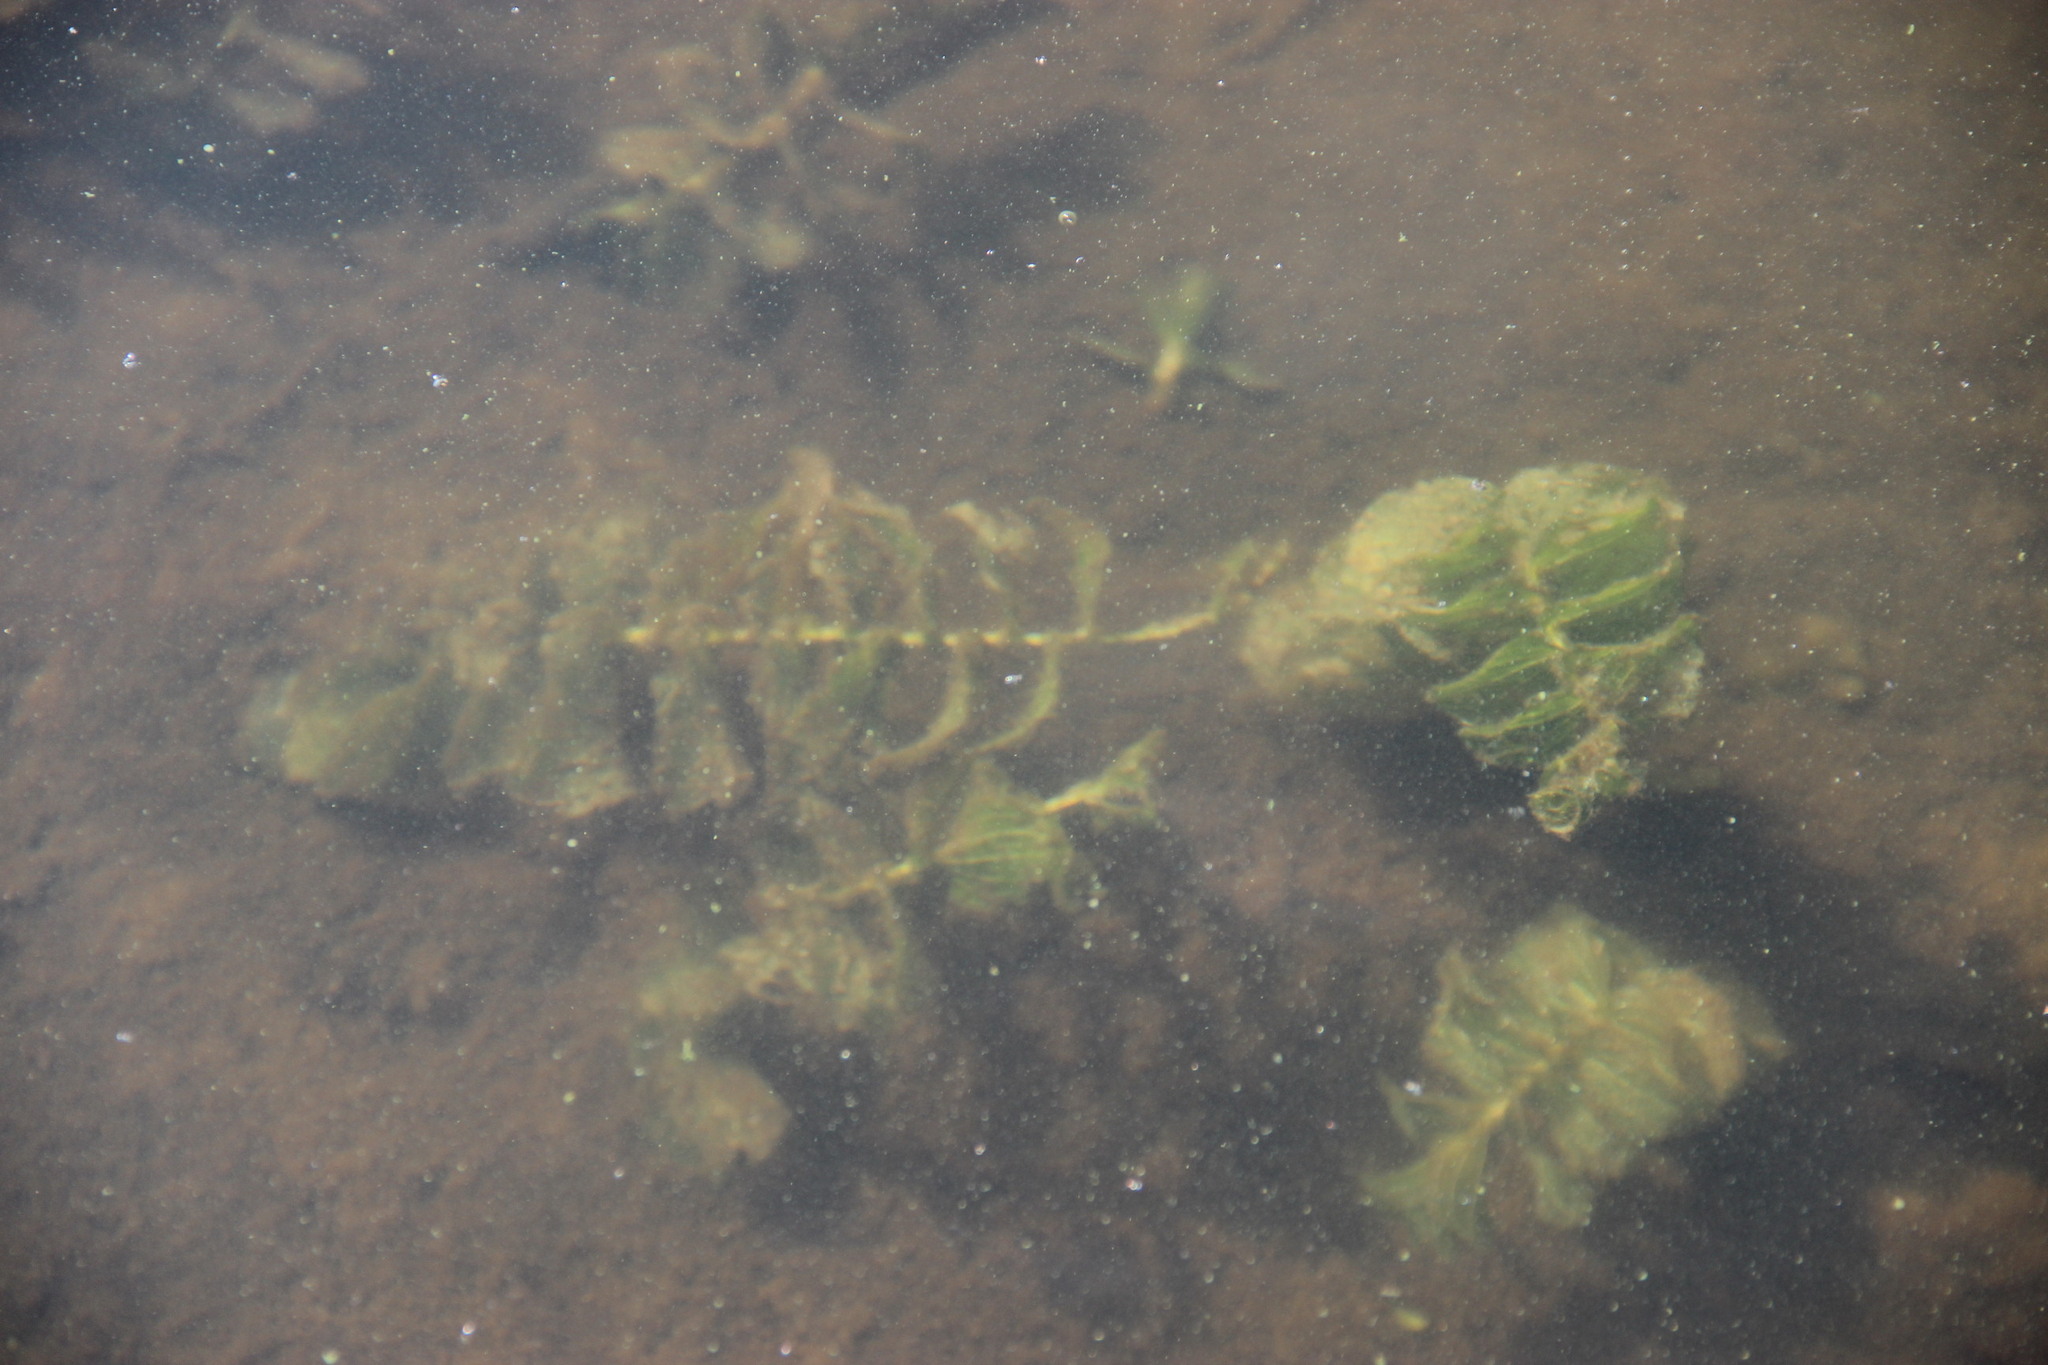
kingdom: Plantae
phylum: Tracheophyta
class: Liliopsida
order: Alismatales
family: Potamogetonaceae
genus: Potamogeton
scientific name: Potamogeton perfoliatus
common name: Perfoliate pondweed
